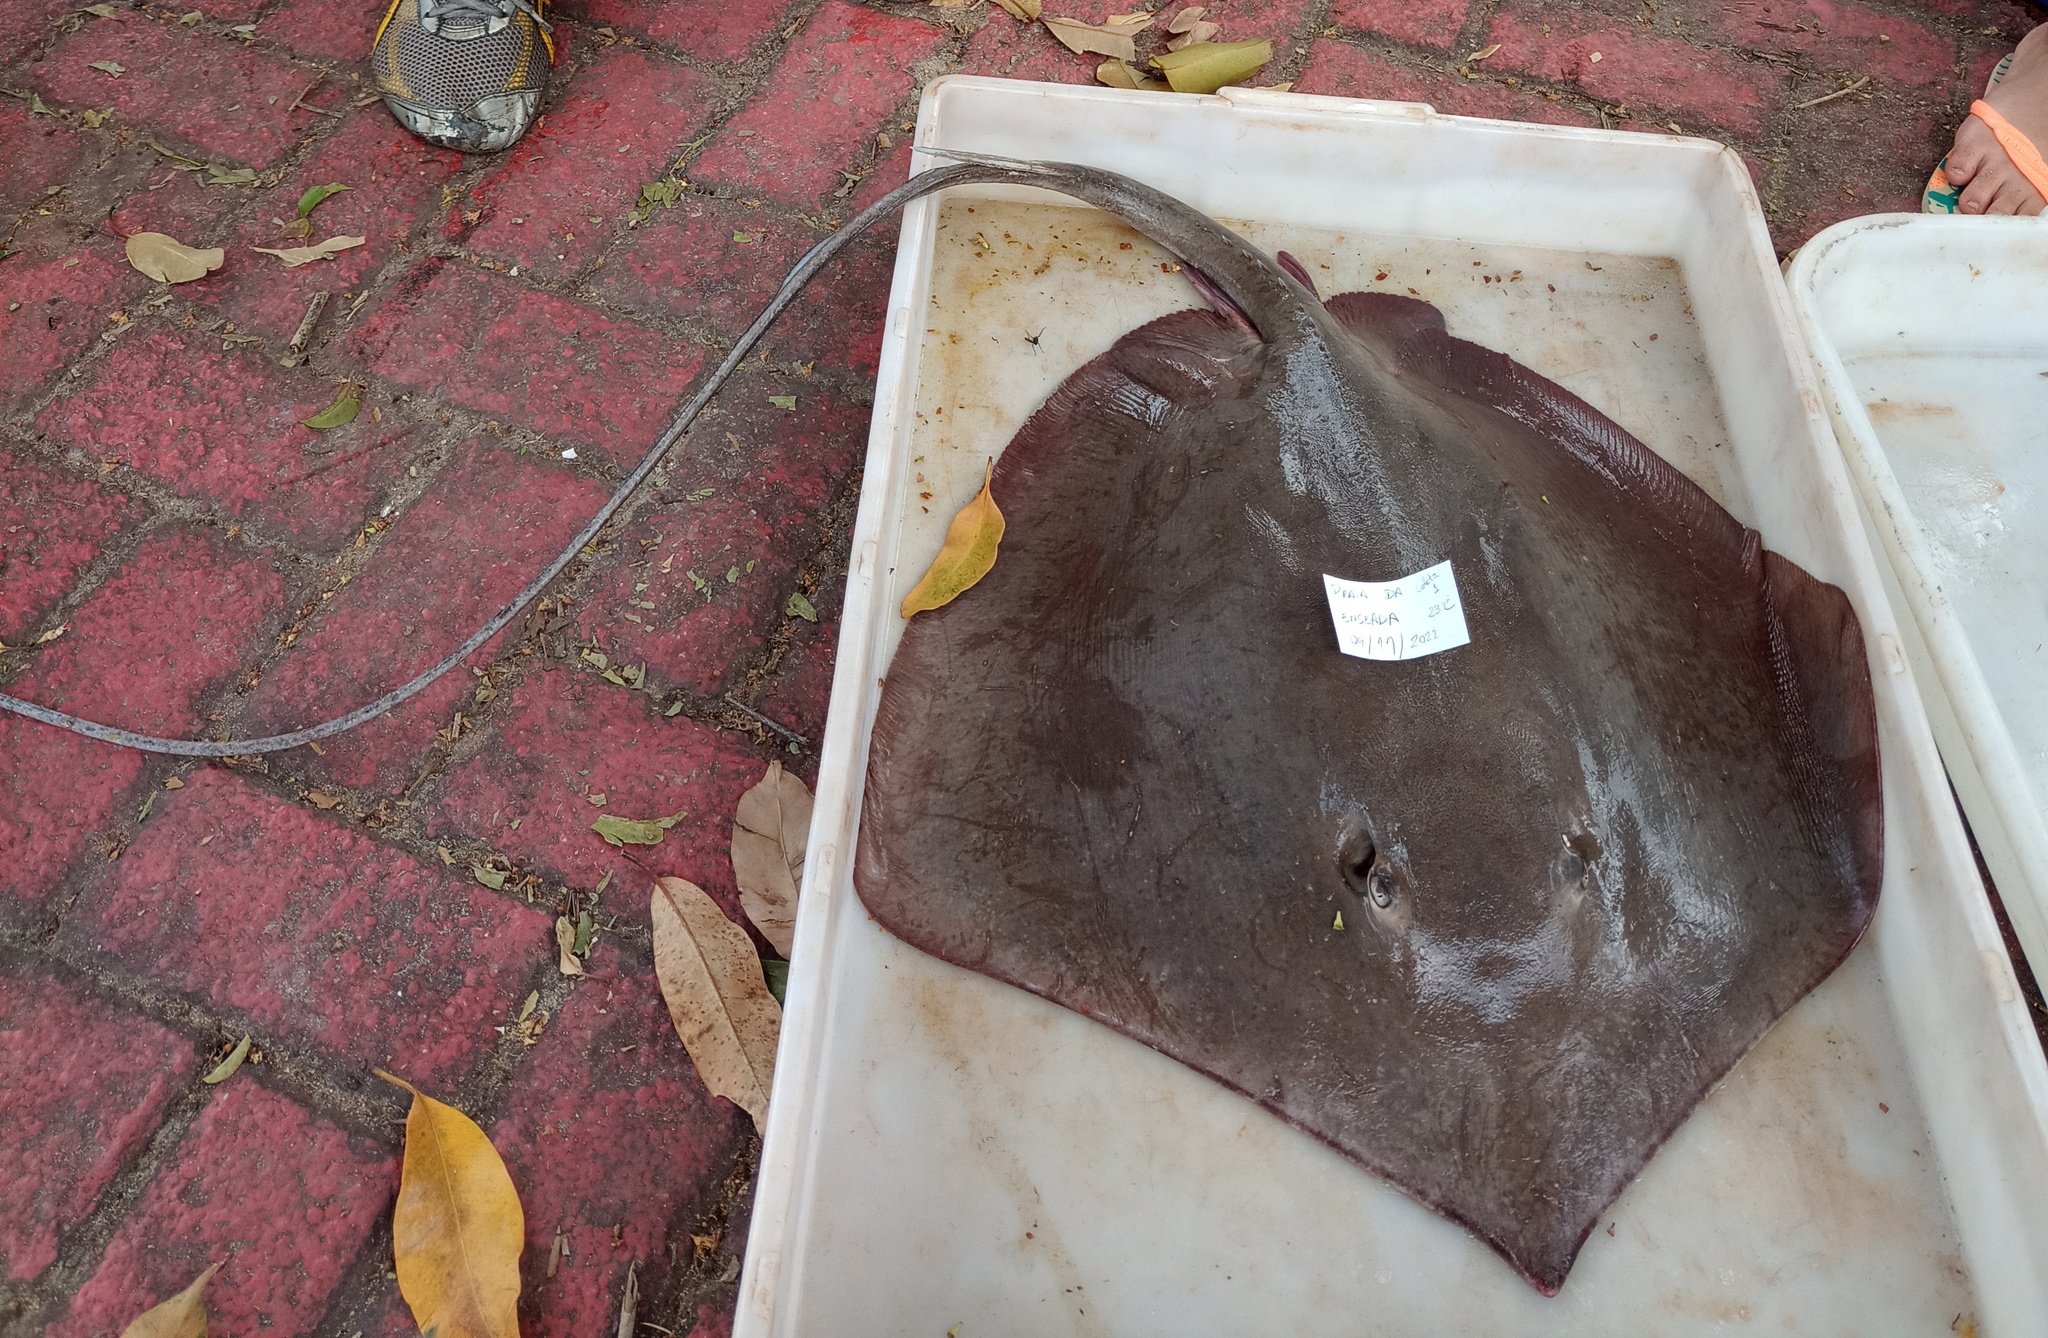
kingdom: Animalia
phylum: Chordata
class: Elasmobranchii
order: Myliobatiformes
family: Dasyatidae
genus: Hypanus
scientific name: Hypanus guttatus
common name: Longnose stingray
